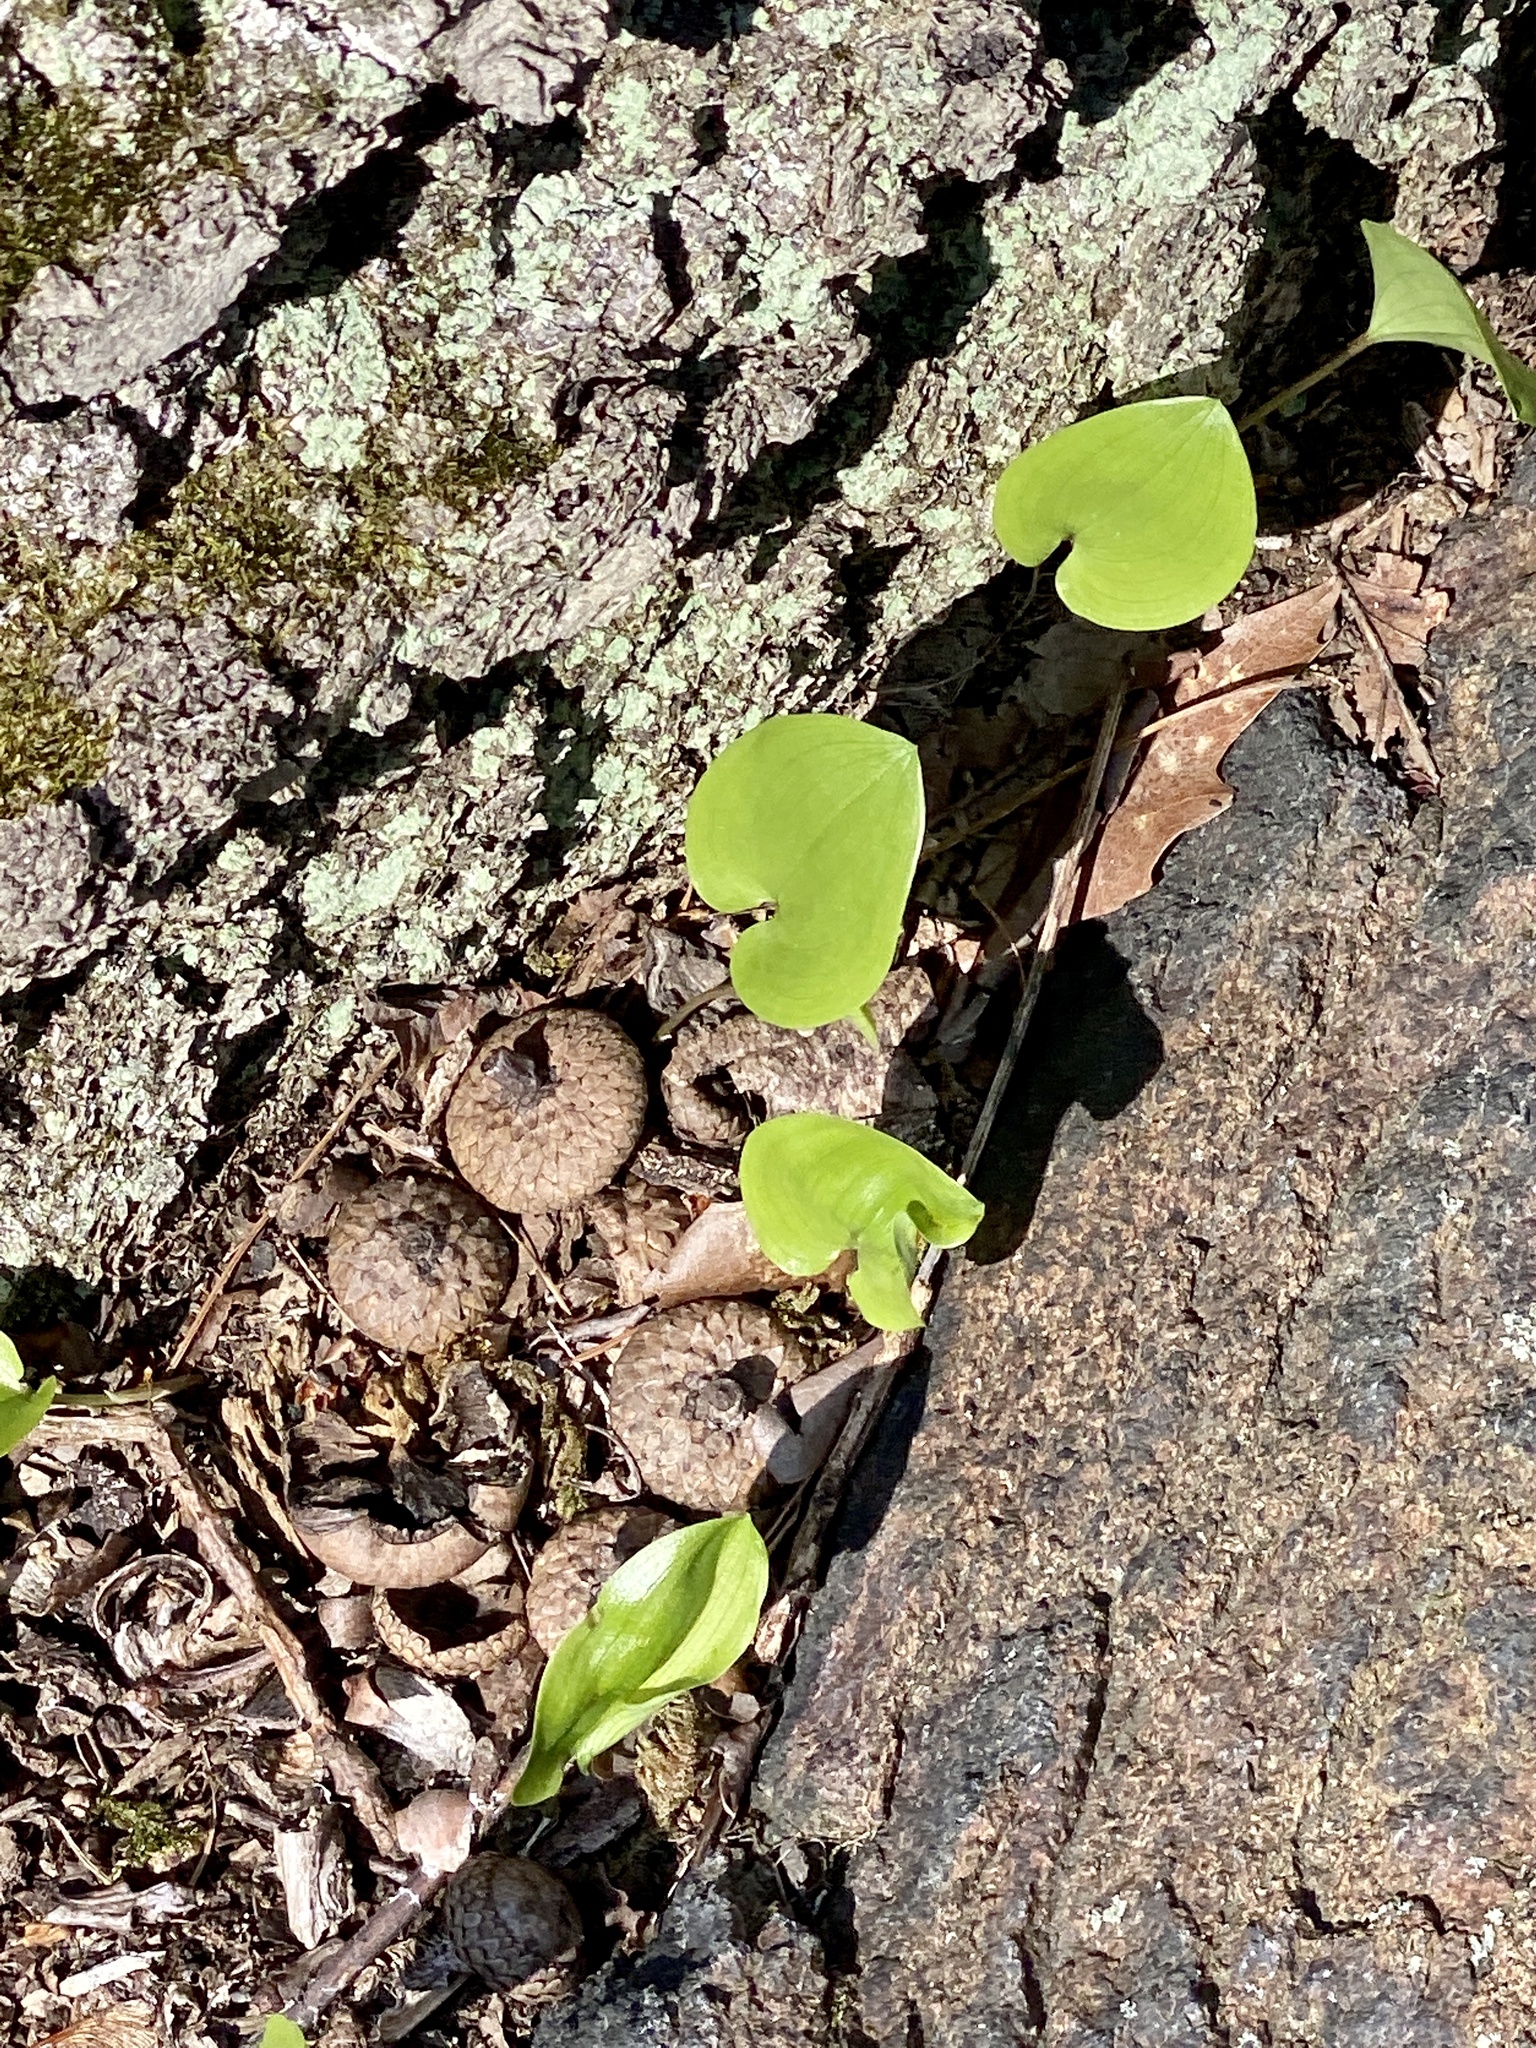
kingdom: Plantae
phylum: Tracheophyta
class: Liliopsida
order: Asparagales
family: Asparagaceae
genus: Maianthemum
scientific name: Maianthemum canadense
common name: False lily-of-the-valley
